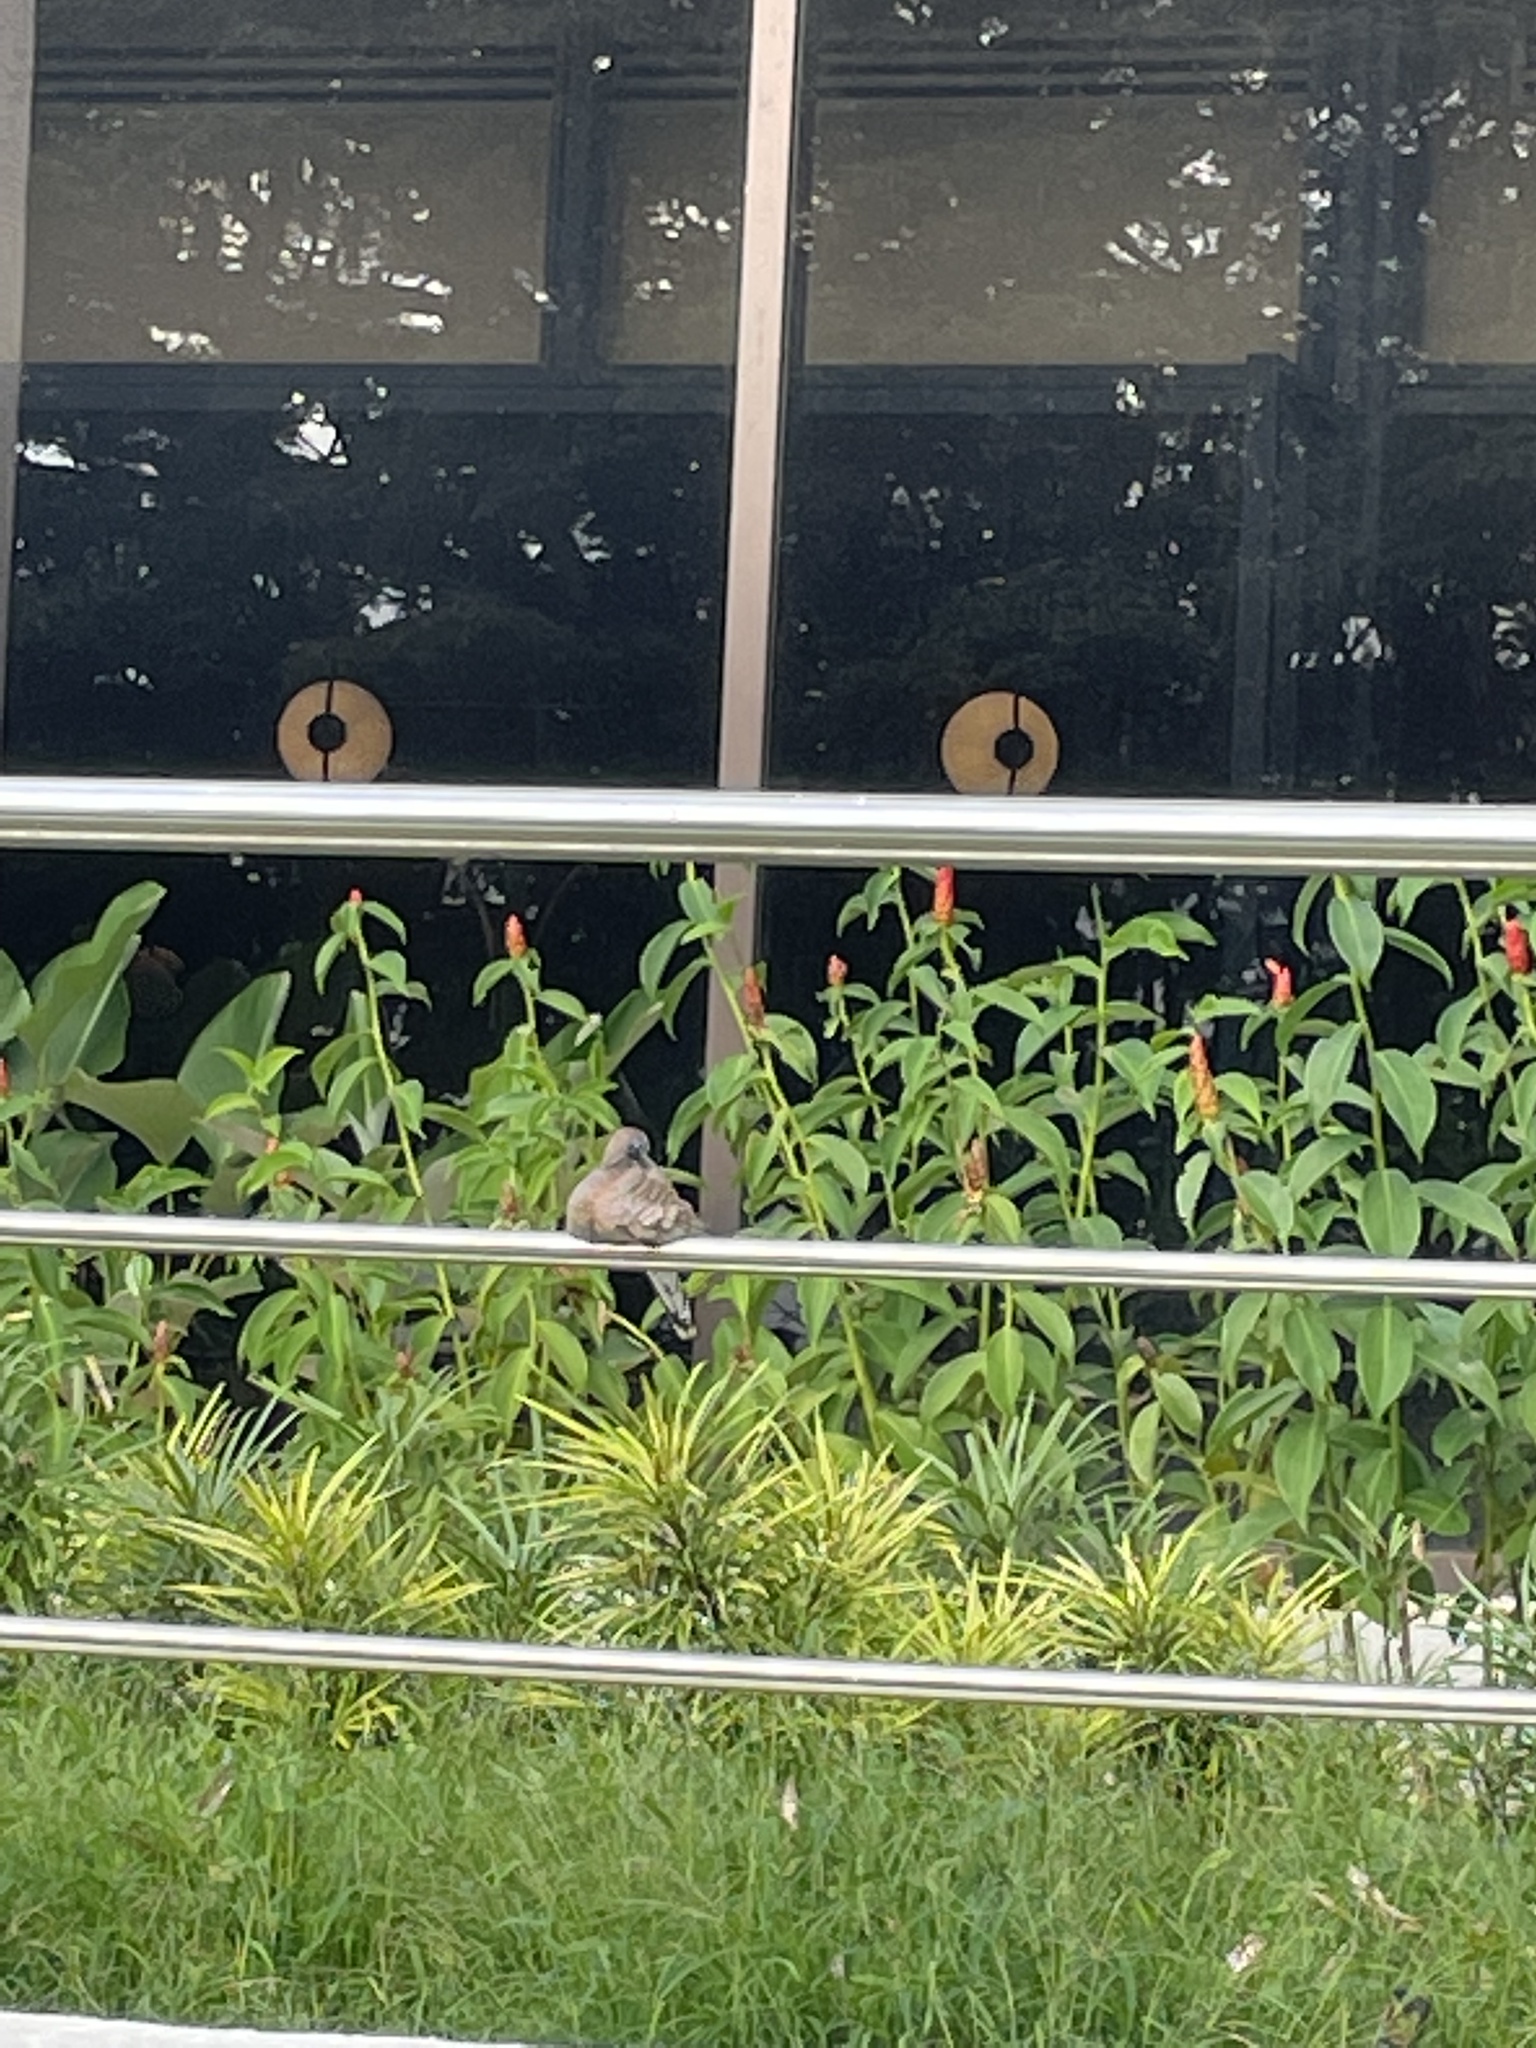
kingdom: Animalia
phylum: Chordata
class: Aves
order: Columbiformes
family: Columbidae
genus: Geopelia
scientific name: Geopelia striata
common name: Zebra dove
